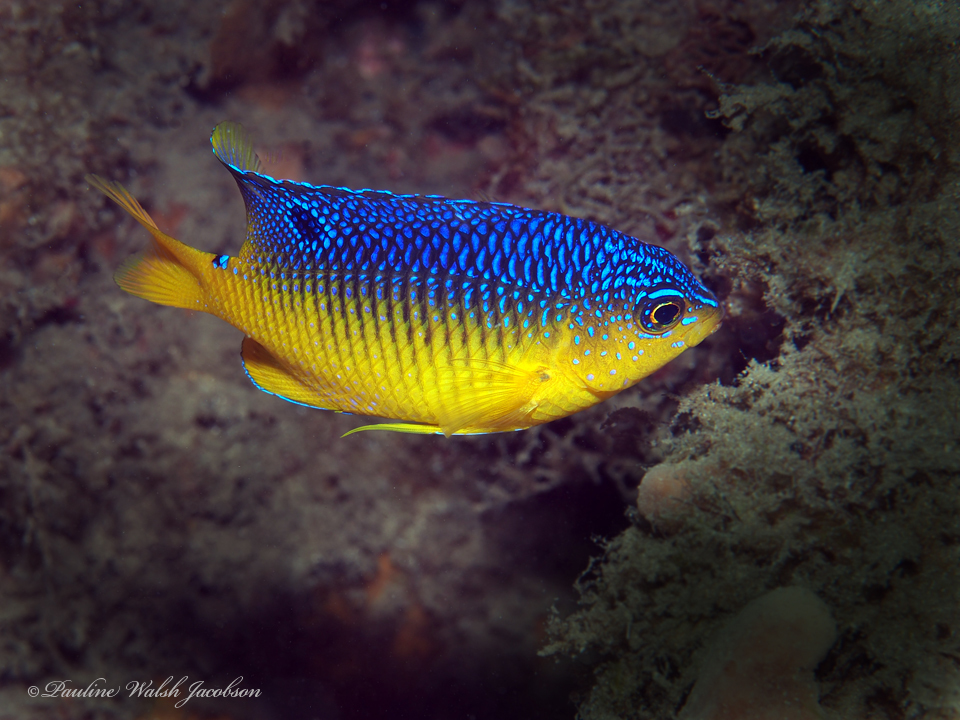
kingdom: Animalia
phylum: Chordata
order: Perciformes
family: Pomacentridae
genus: Stegastes
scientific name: Stegastes xanthurus
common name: Cocoa damselfish
